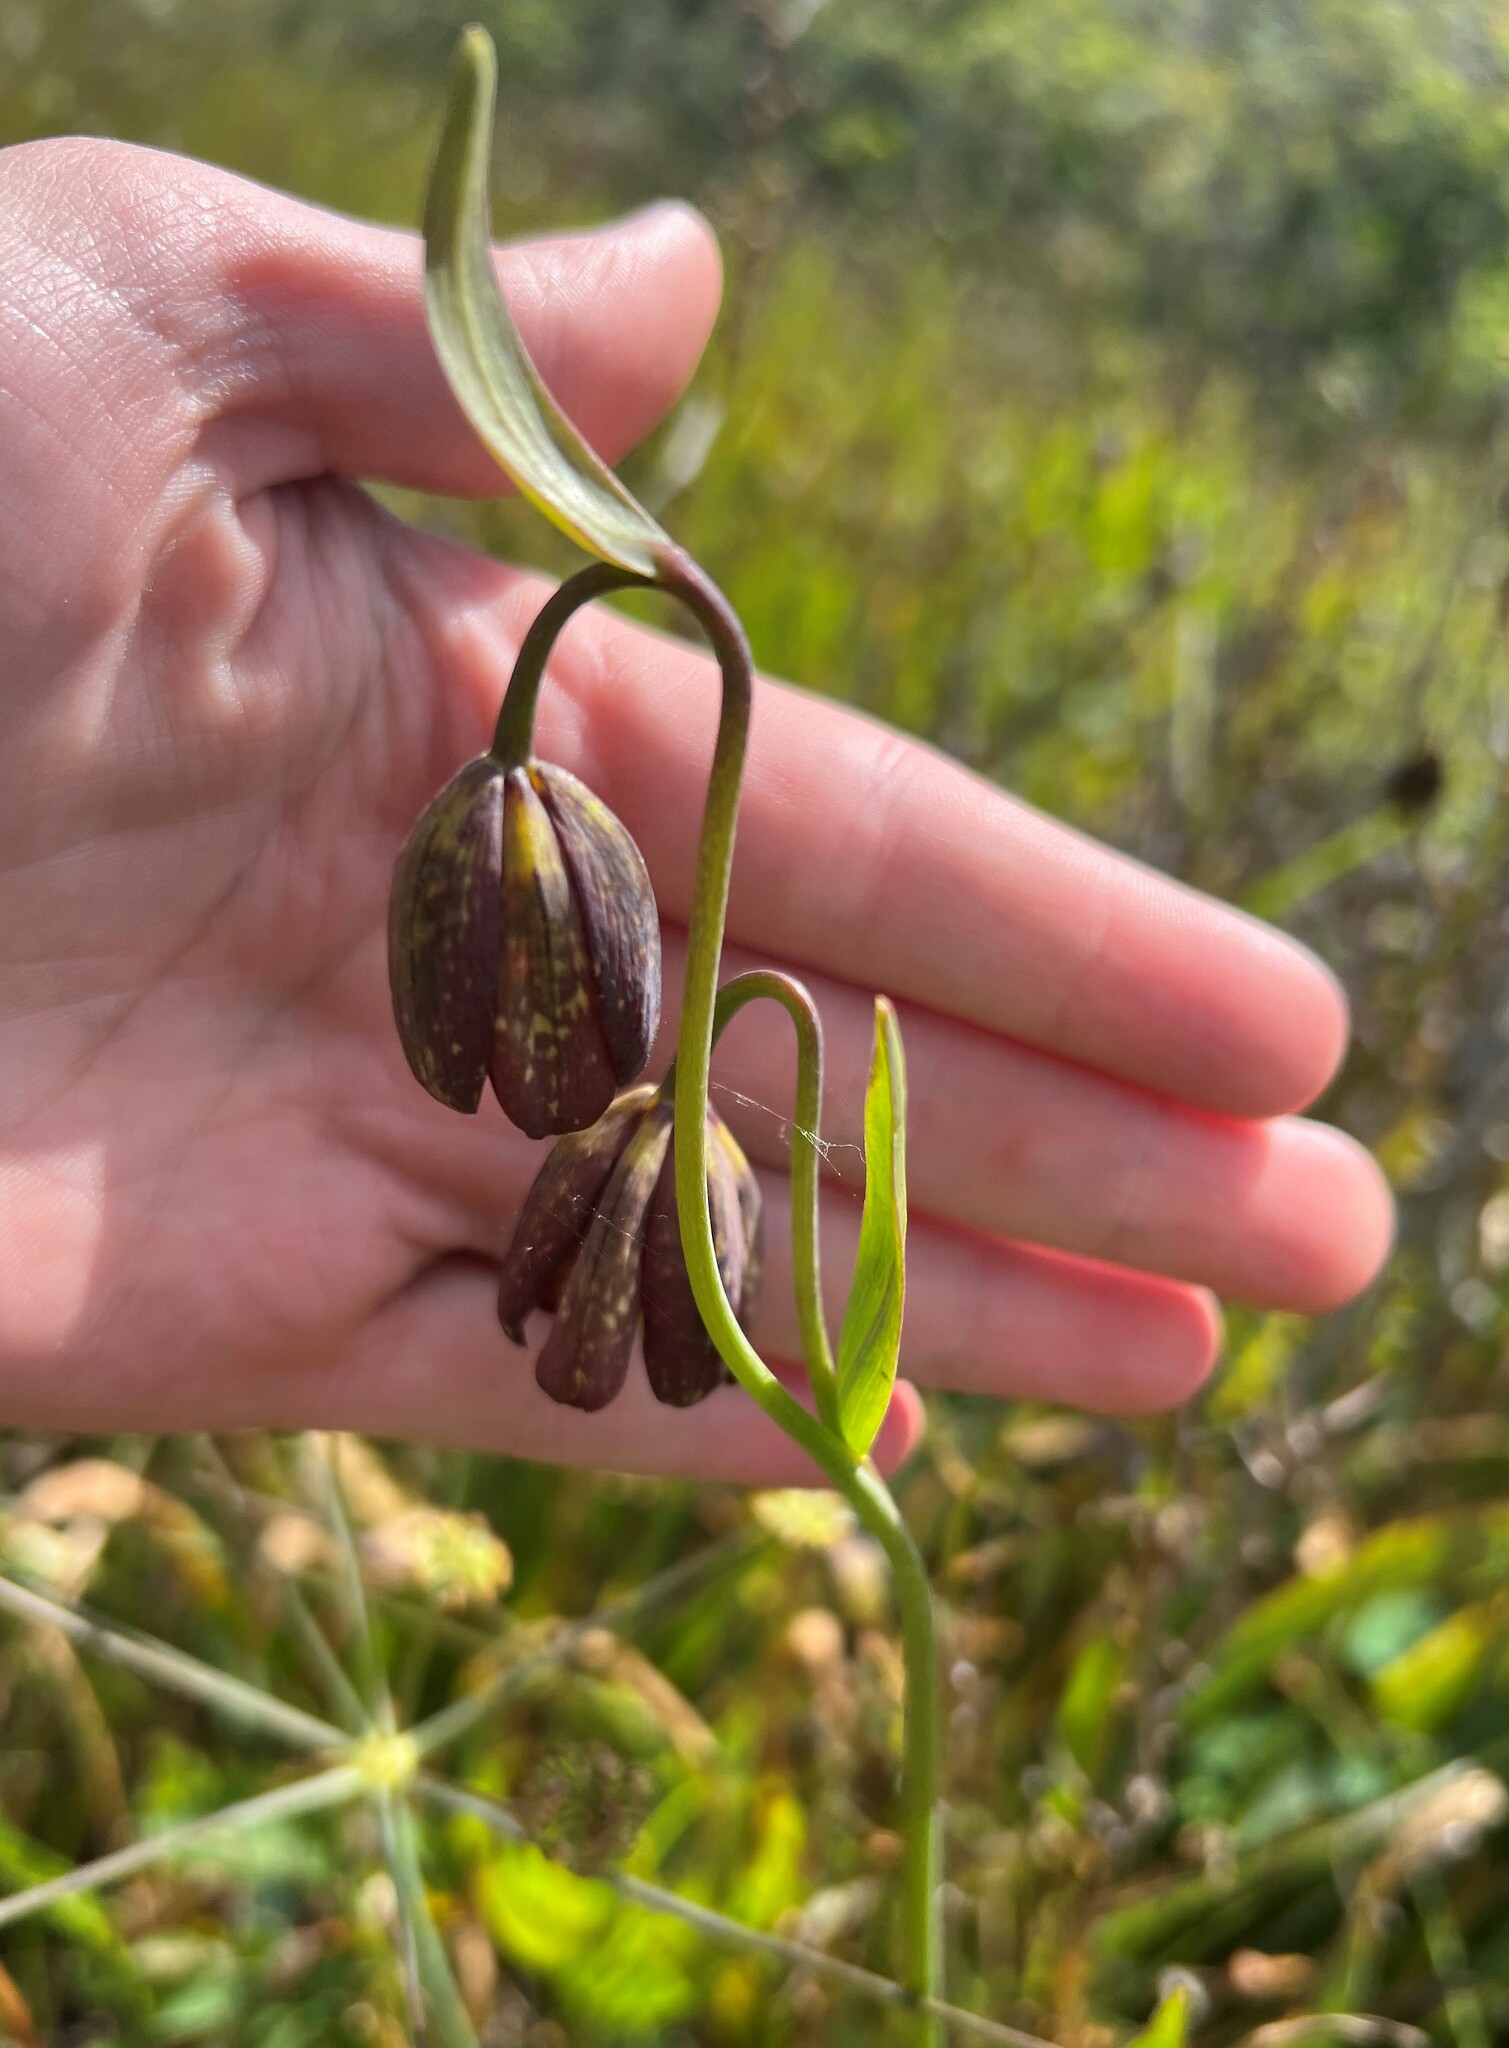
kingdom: Plantae
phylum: Tracheophyta
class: Liliopsida
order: Liliales
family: Liliaceae
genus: Fritillaria
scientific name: Fritillaria affinis
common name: Ojai fritillary
